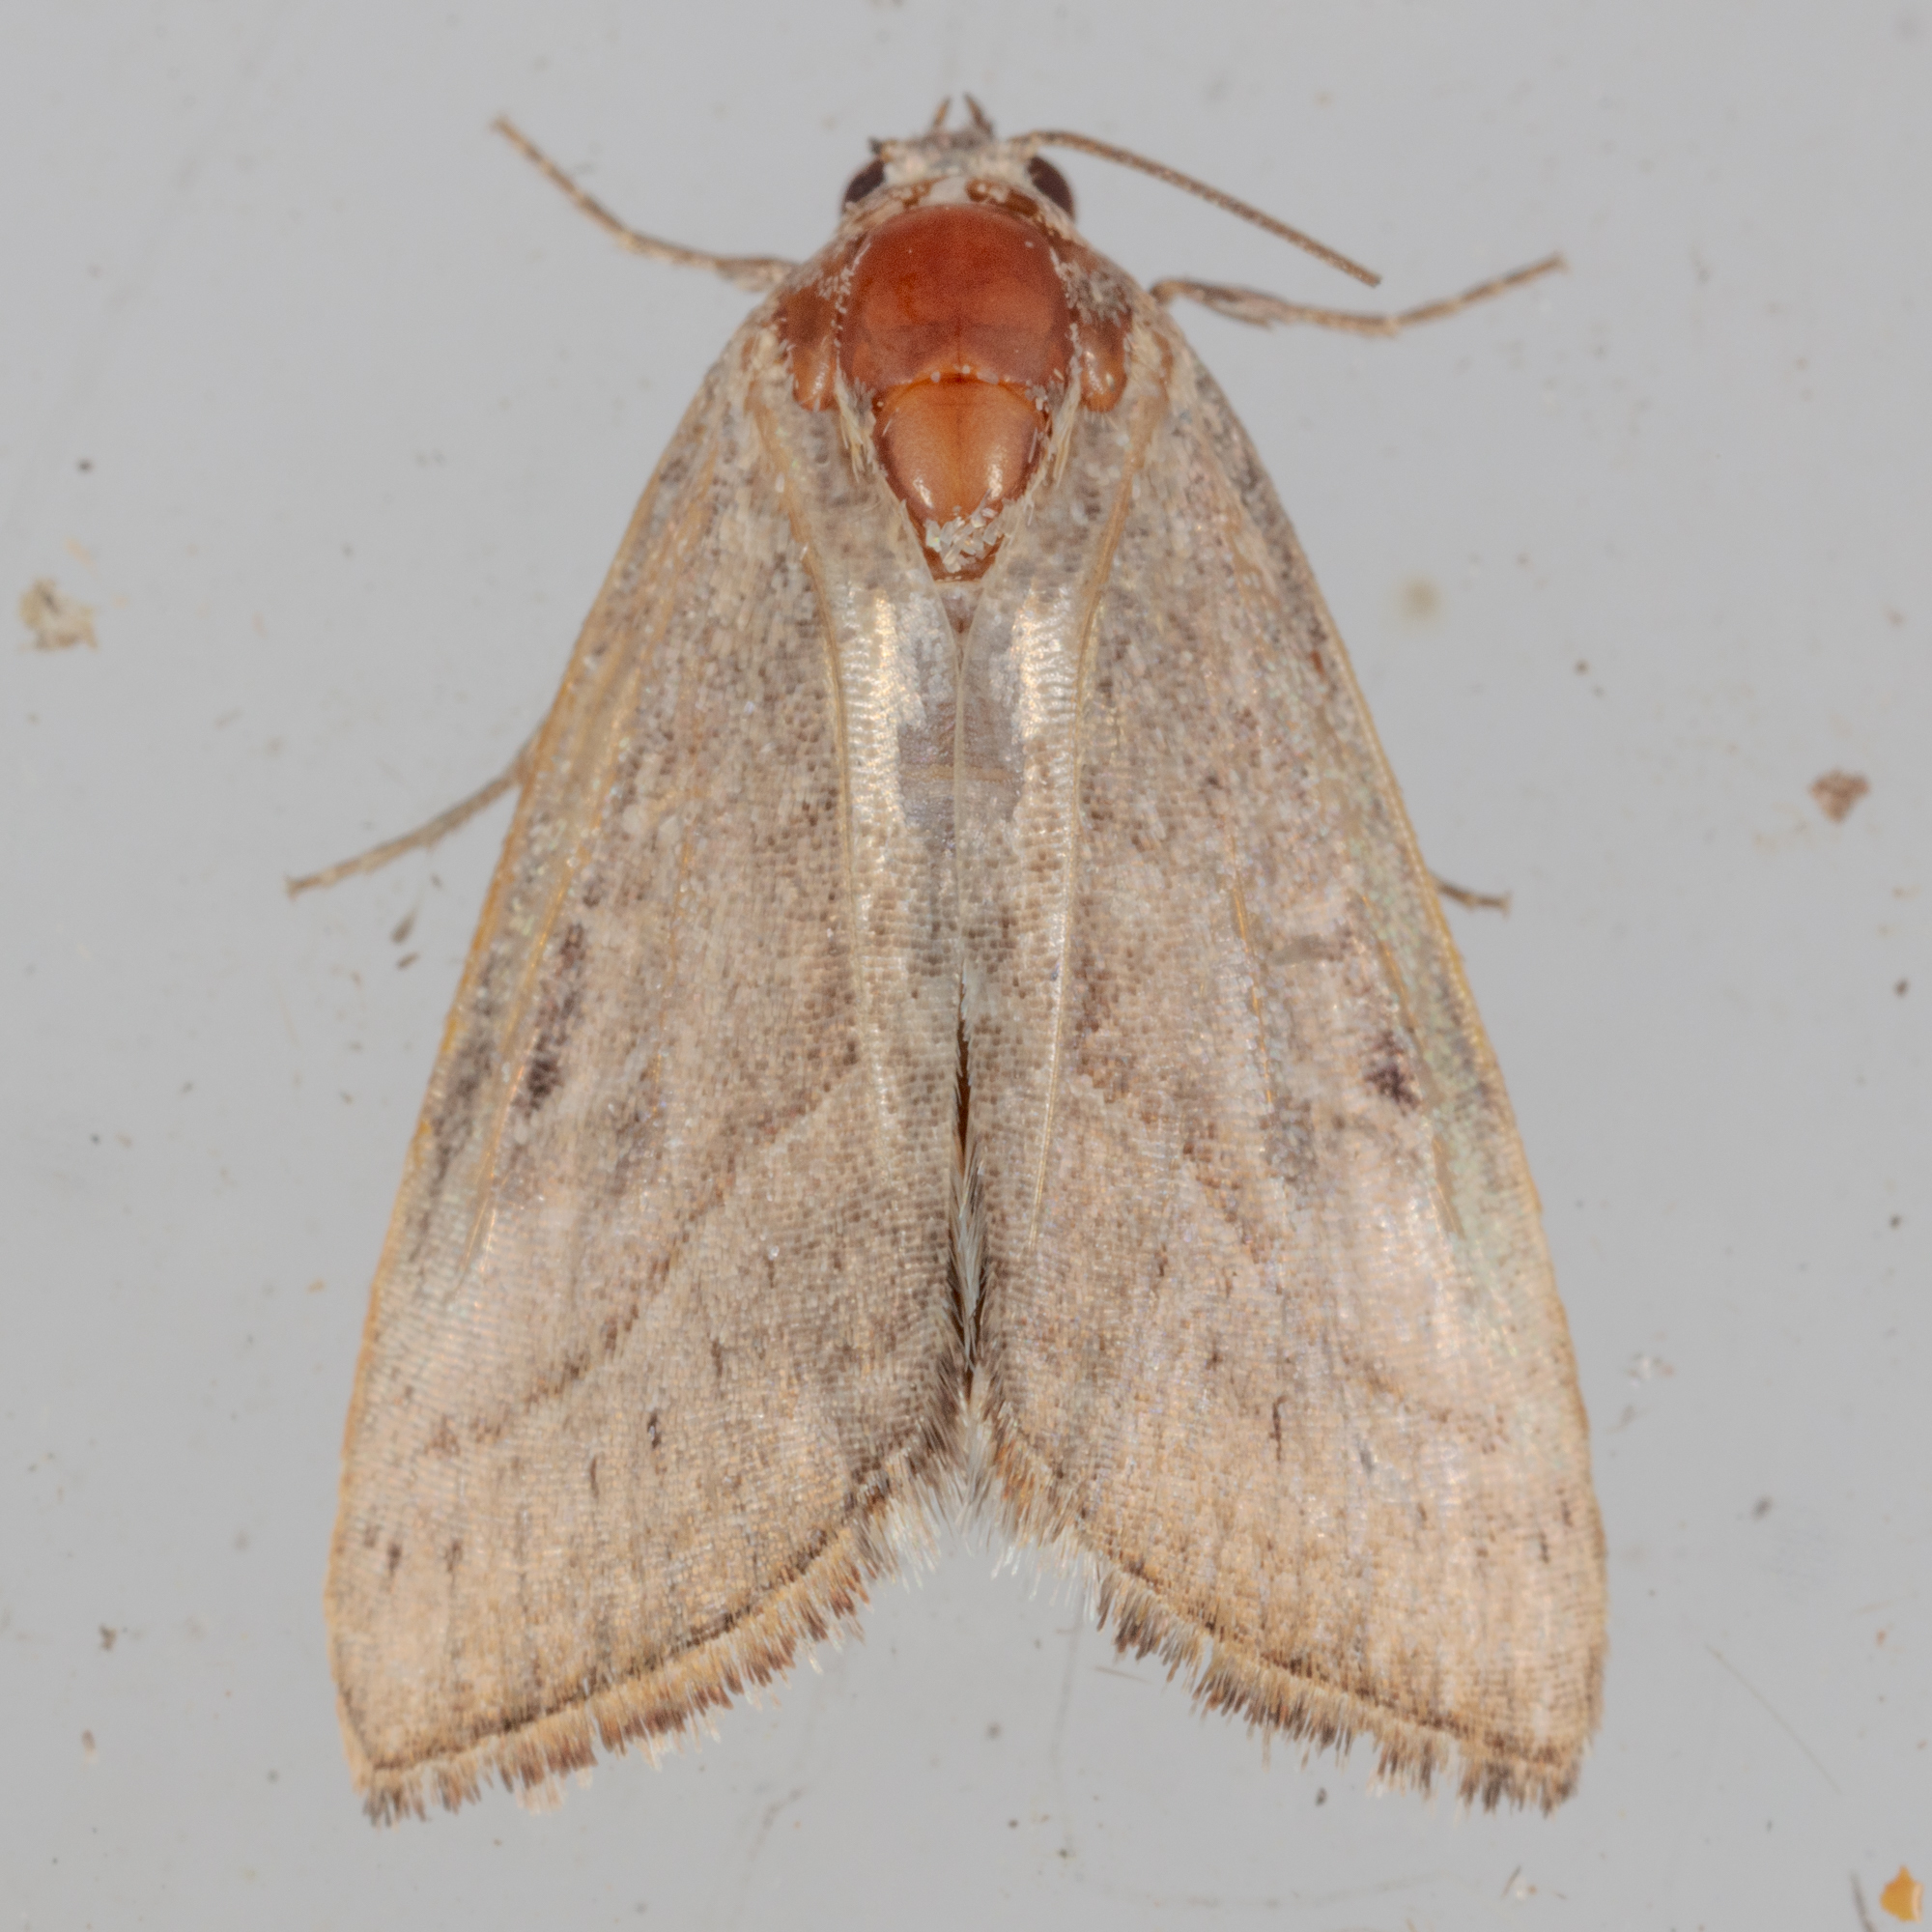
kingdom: Animalia
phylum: Arthropoda
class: Insecta
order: Lepidoptera
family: Noctuidae
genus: Galgula
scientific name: Galgula partita
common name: Wedgeling
